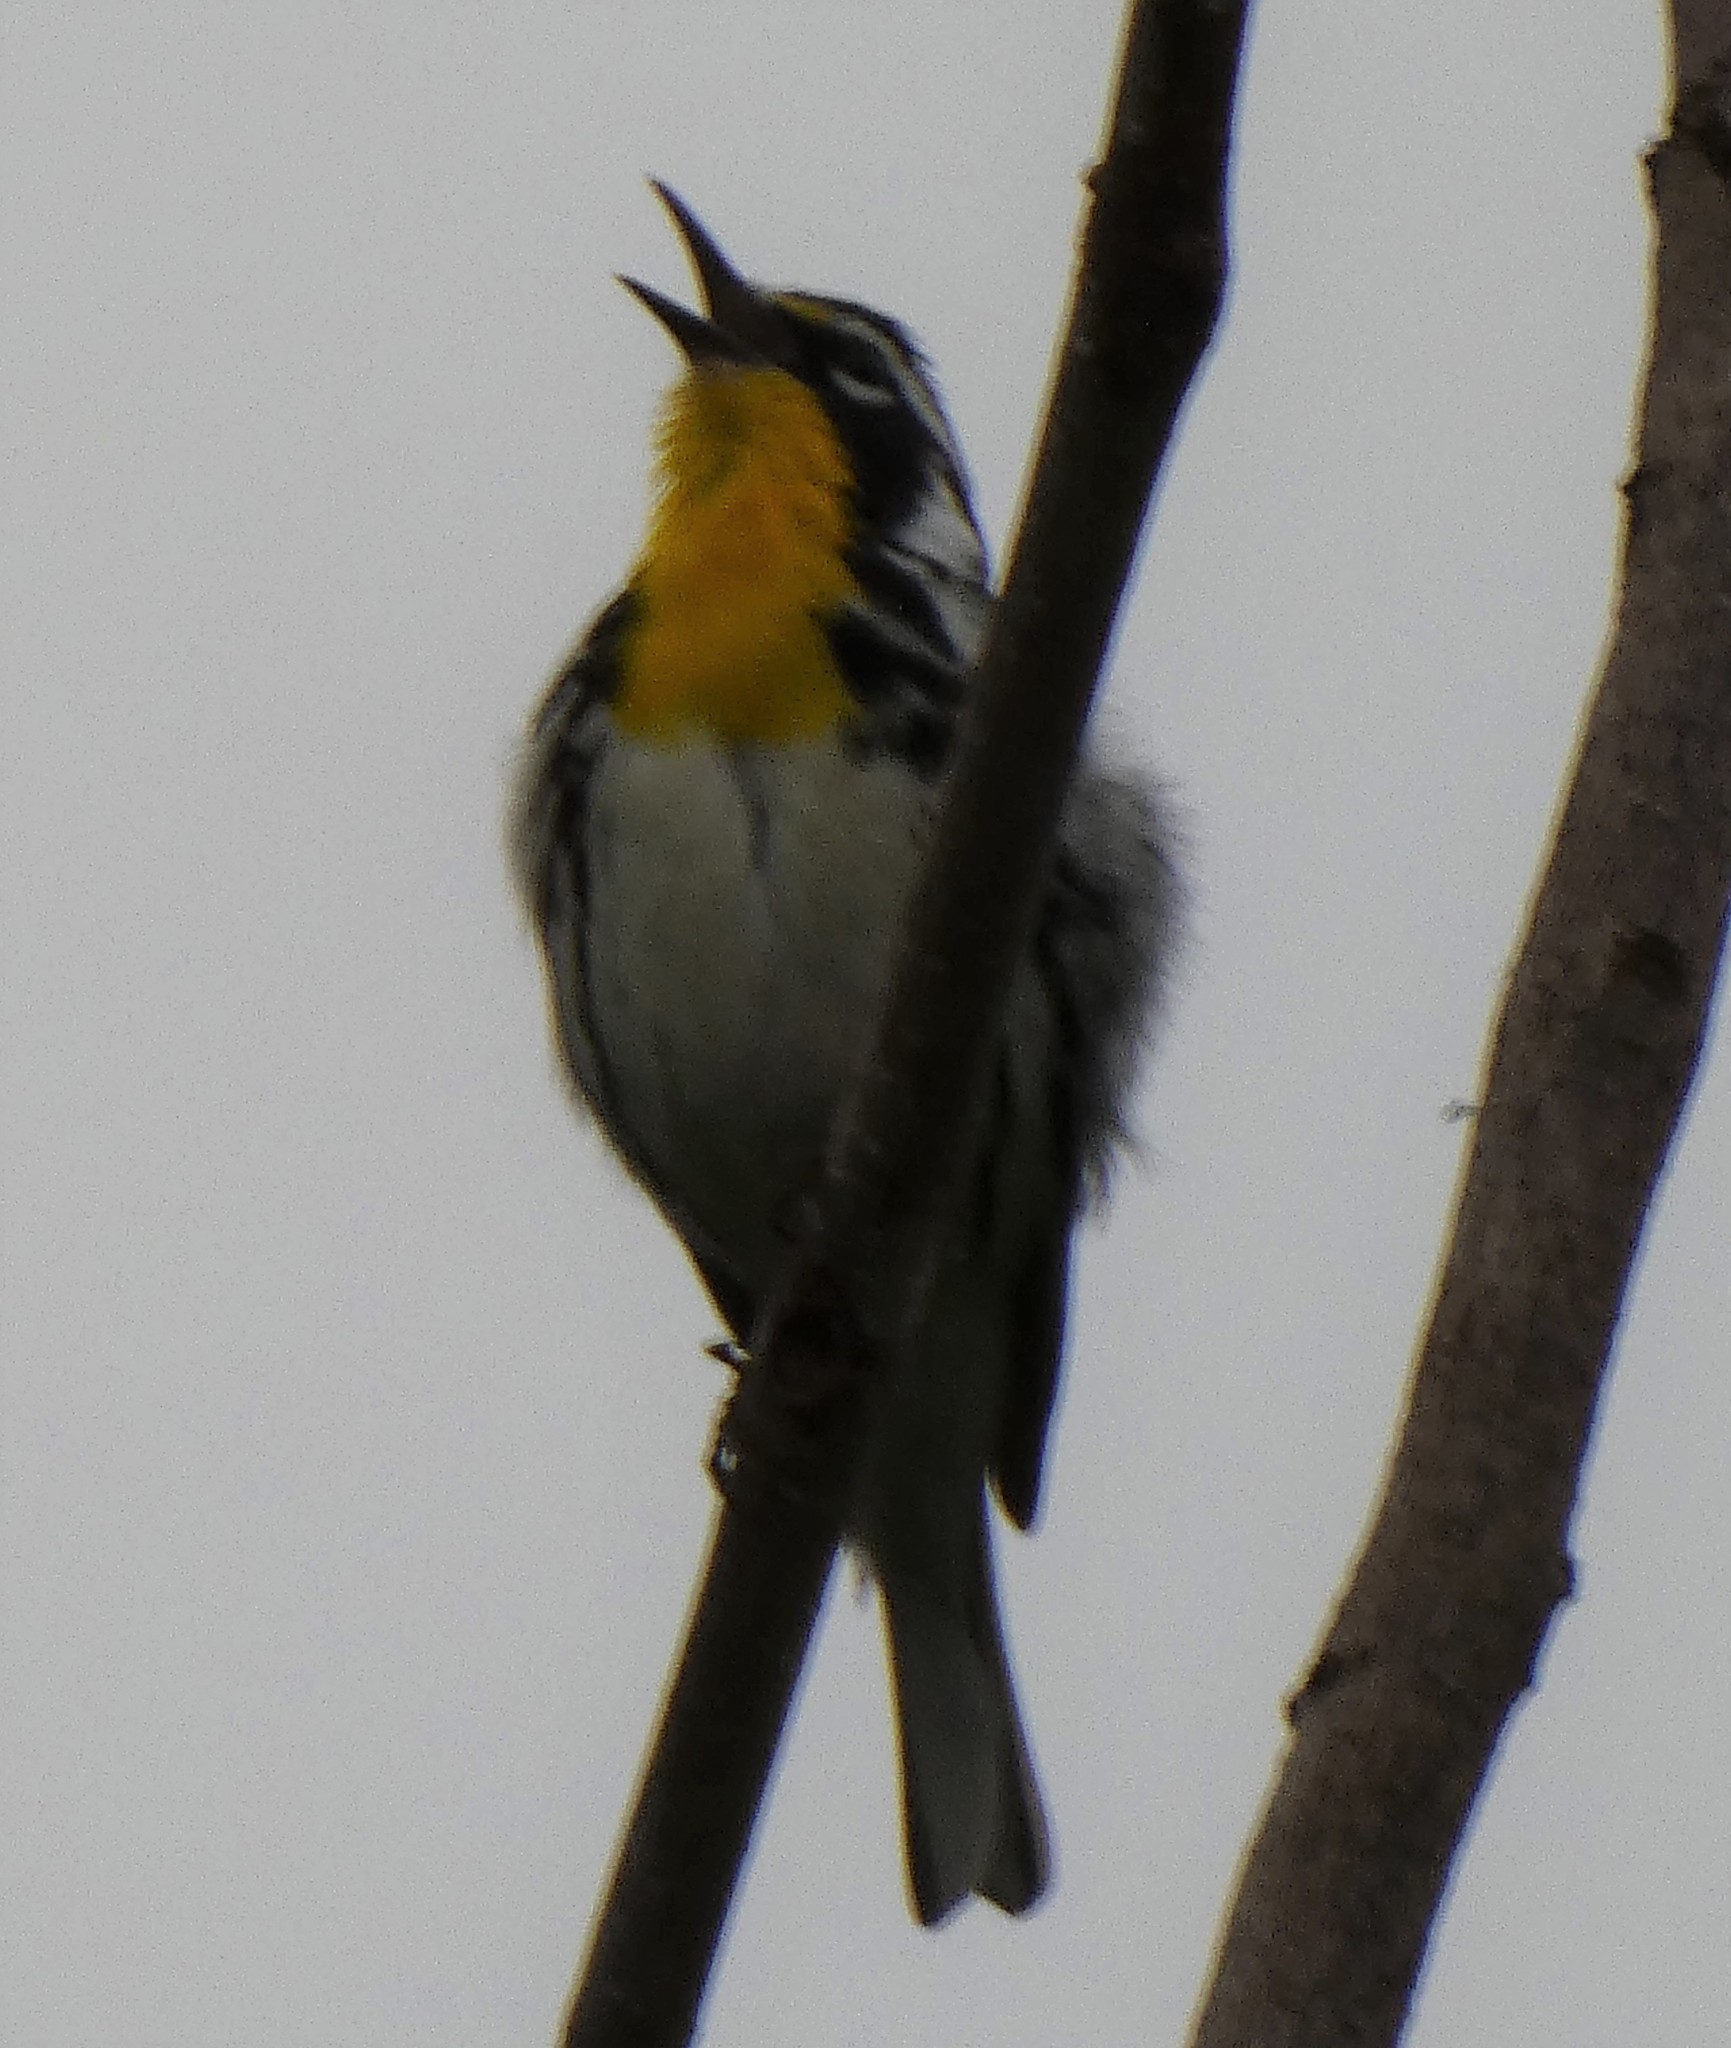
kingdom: Animalia
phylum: Chordata
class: Aves
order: Passeriformes
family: Parulidae
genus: Setophaga
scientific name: Setophaga dominica
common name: Yellow-throated warbler
